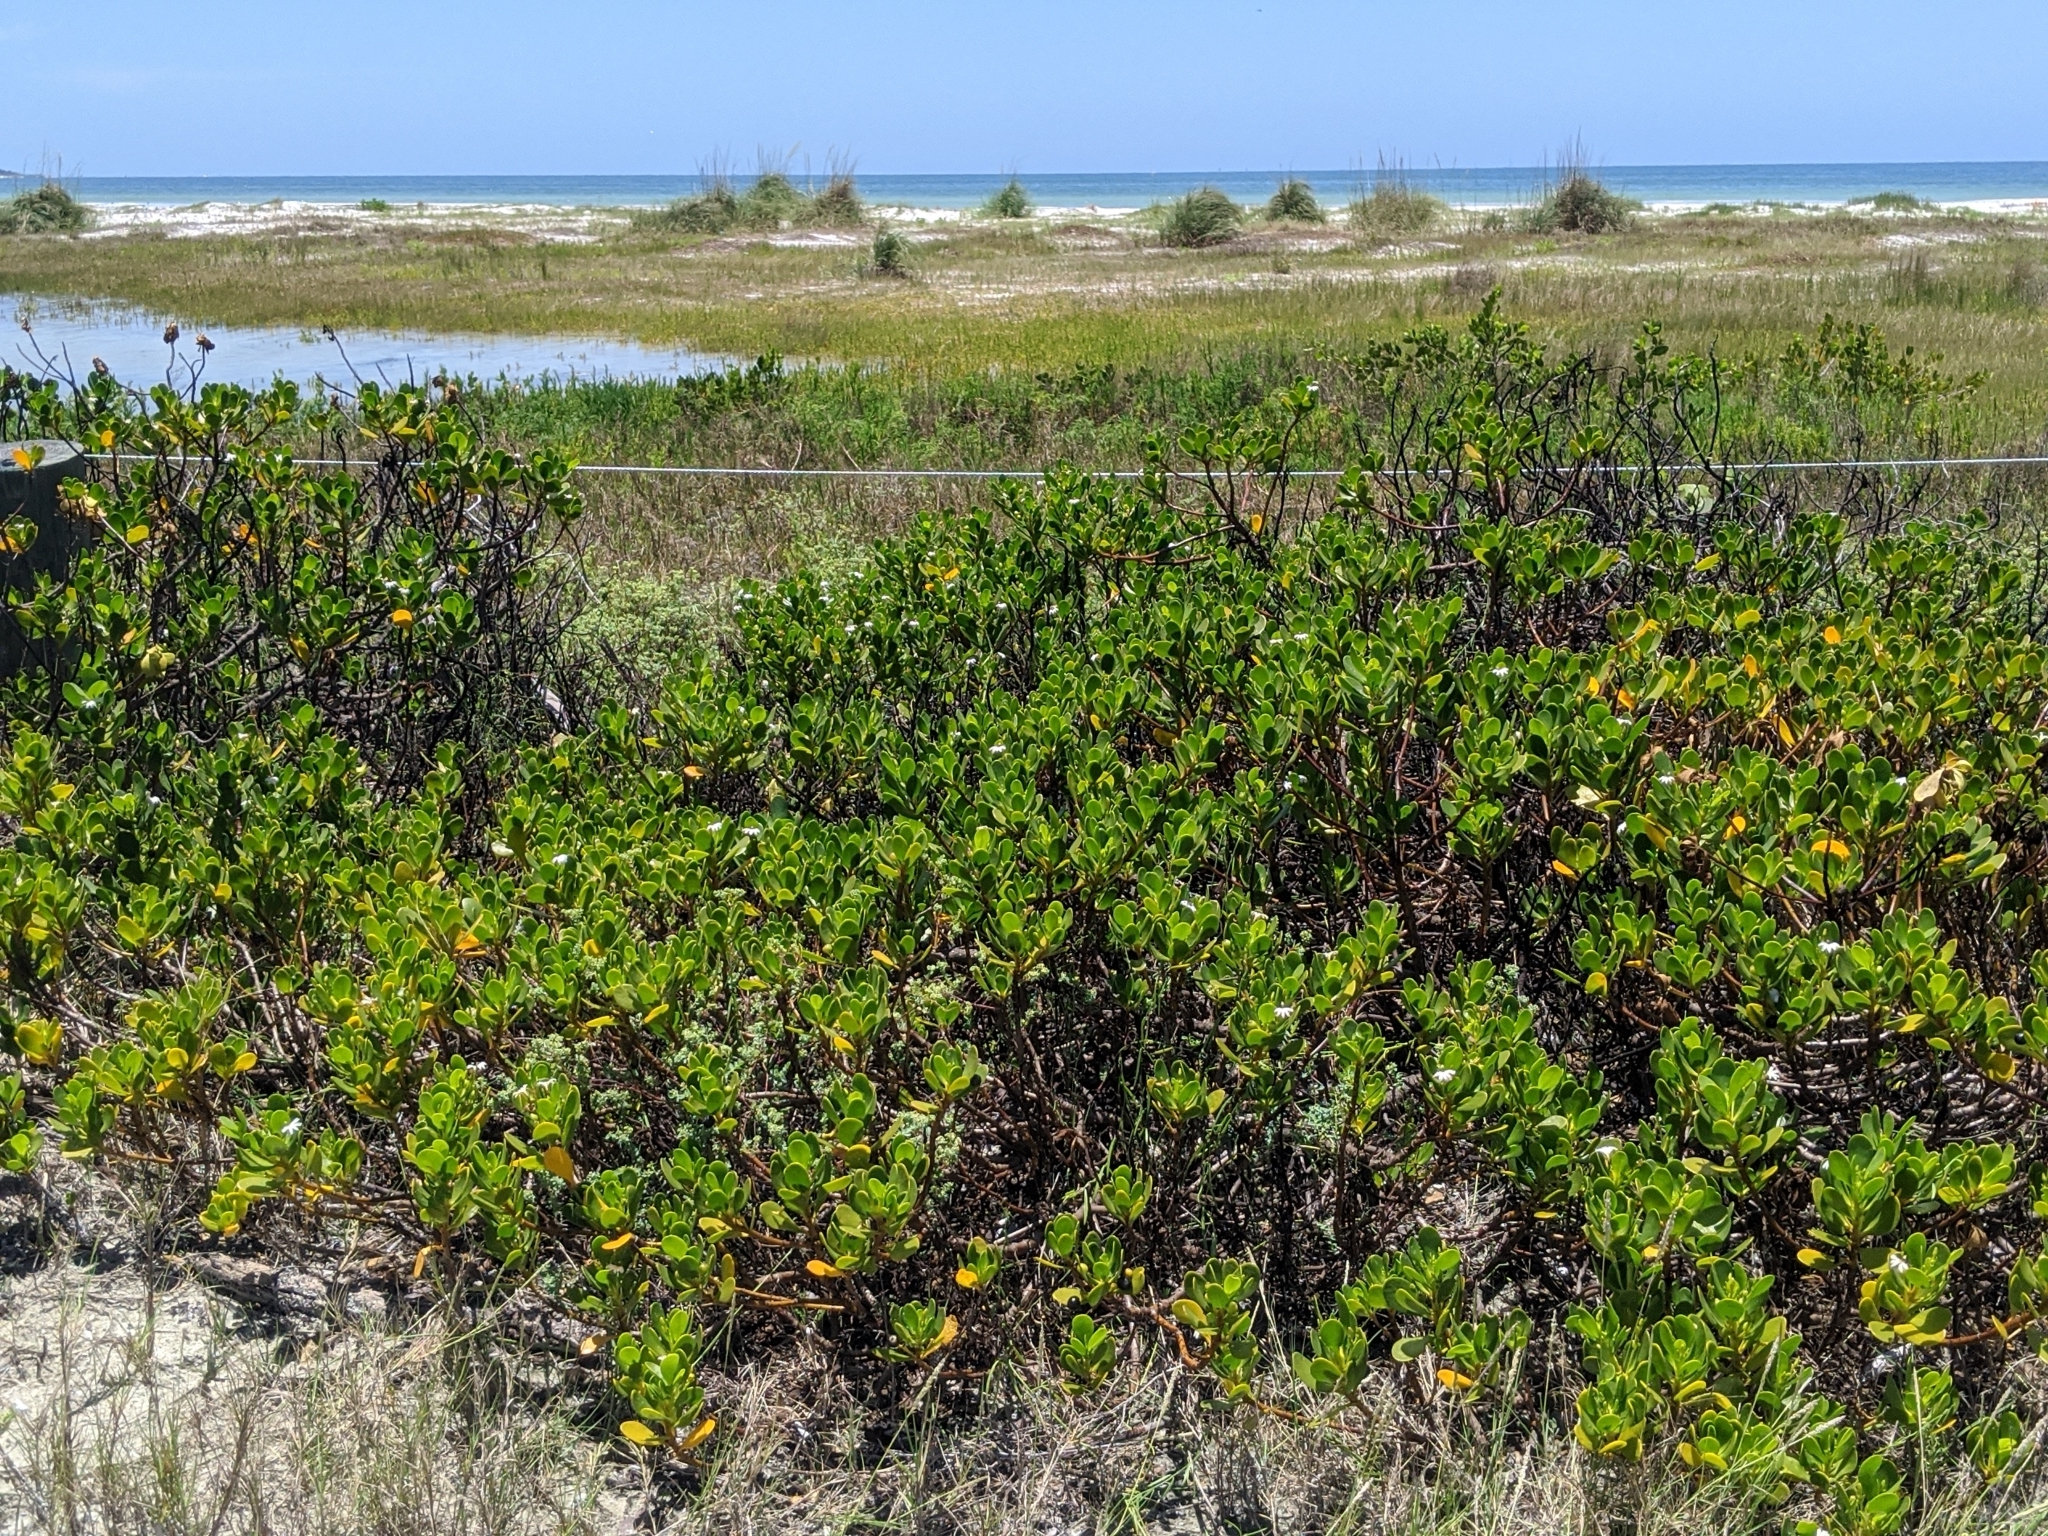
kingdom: Plantae
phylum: Tracheophyta
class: Magnoliopsida
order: Asterales
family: Goodeniaceae
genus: Scaevola
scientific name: Scaevola plumieri
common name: Gull feed
